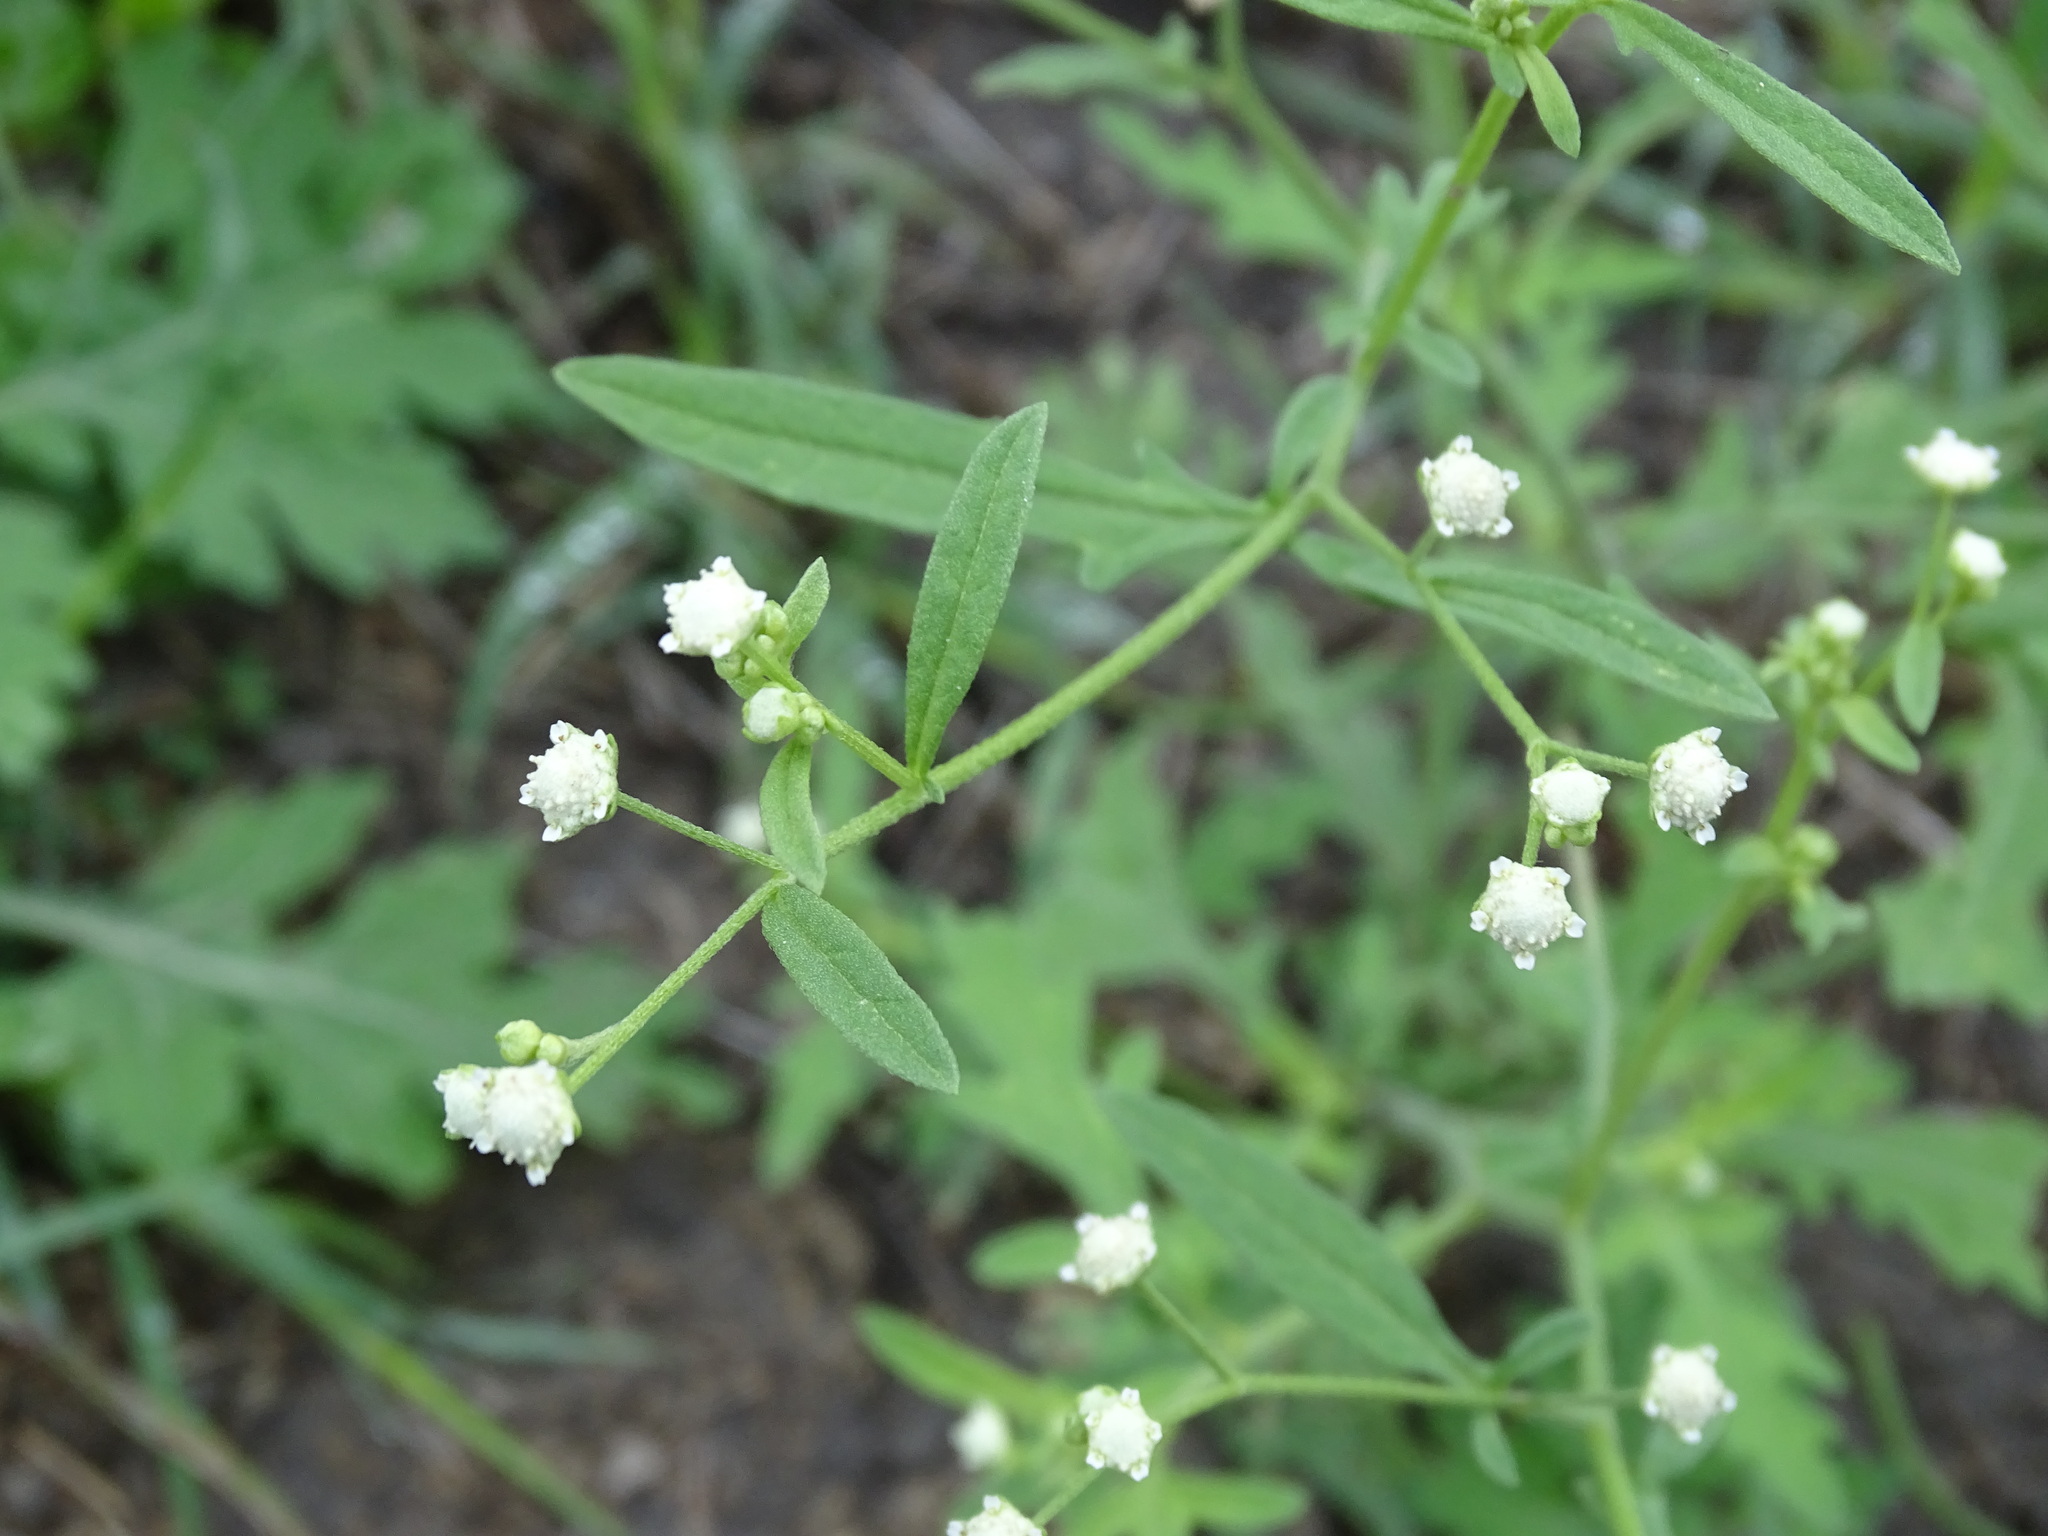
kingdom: Plantae
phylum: Tracheophyta
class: Magnoliopsida
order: Asterales
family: Asteraceae
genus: Parthenium
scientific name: Parthenium hysterophorus
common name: Santa maria feverfew
